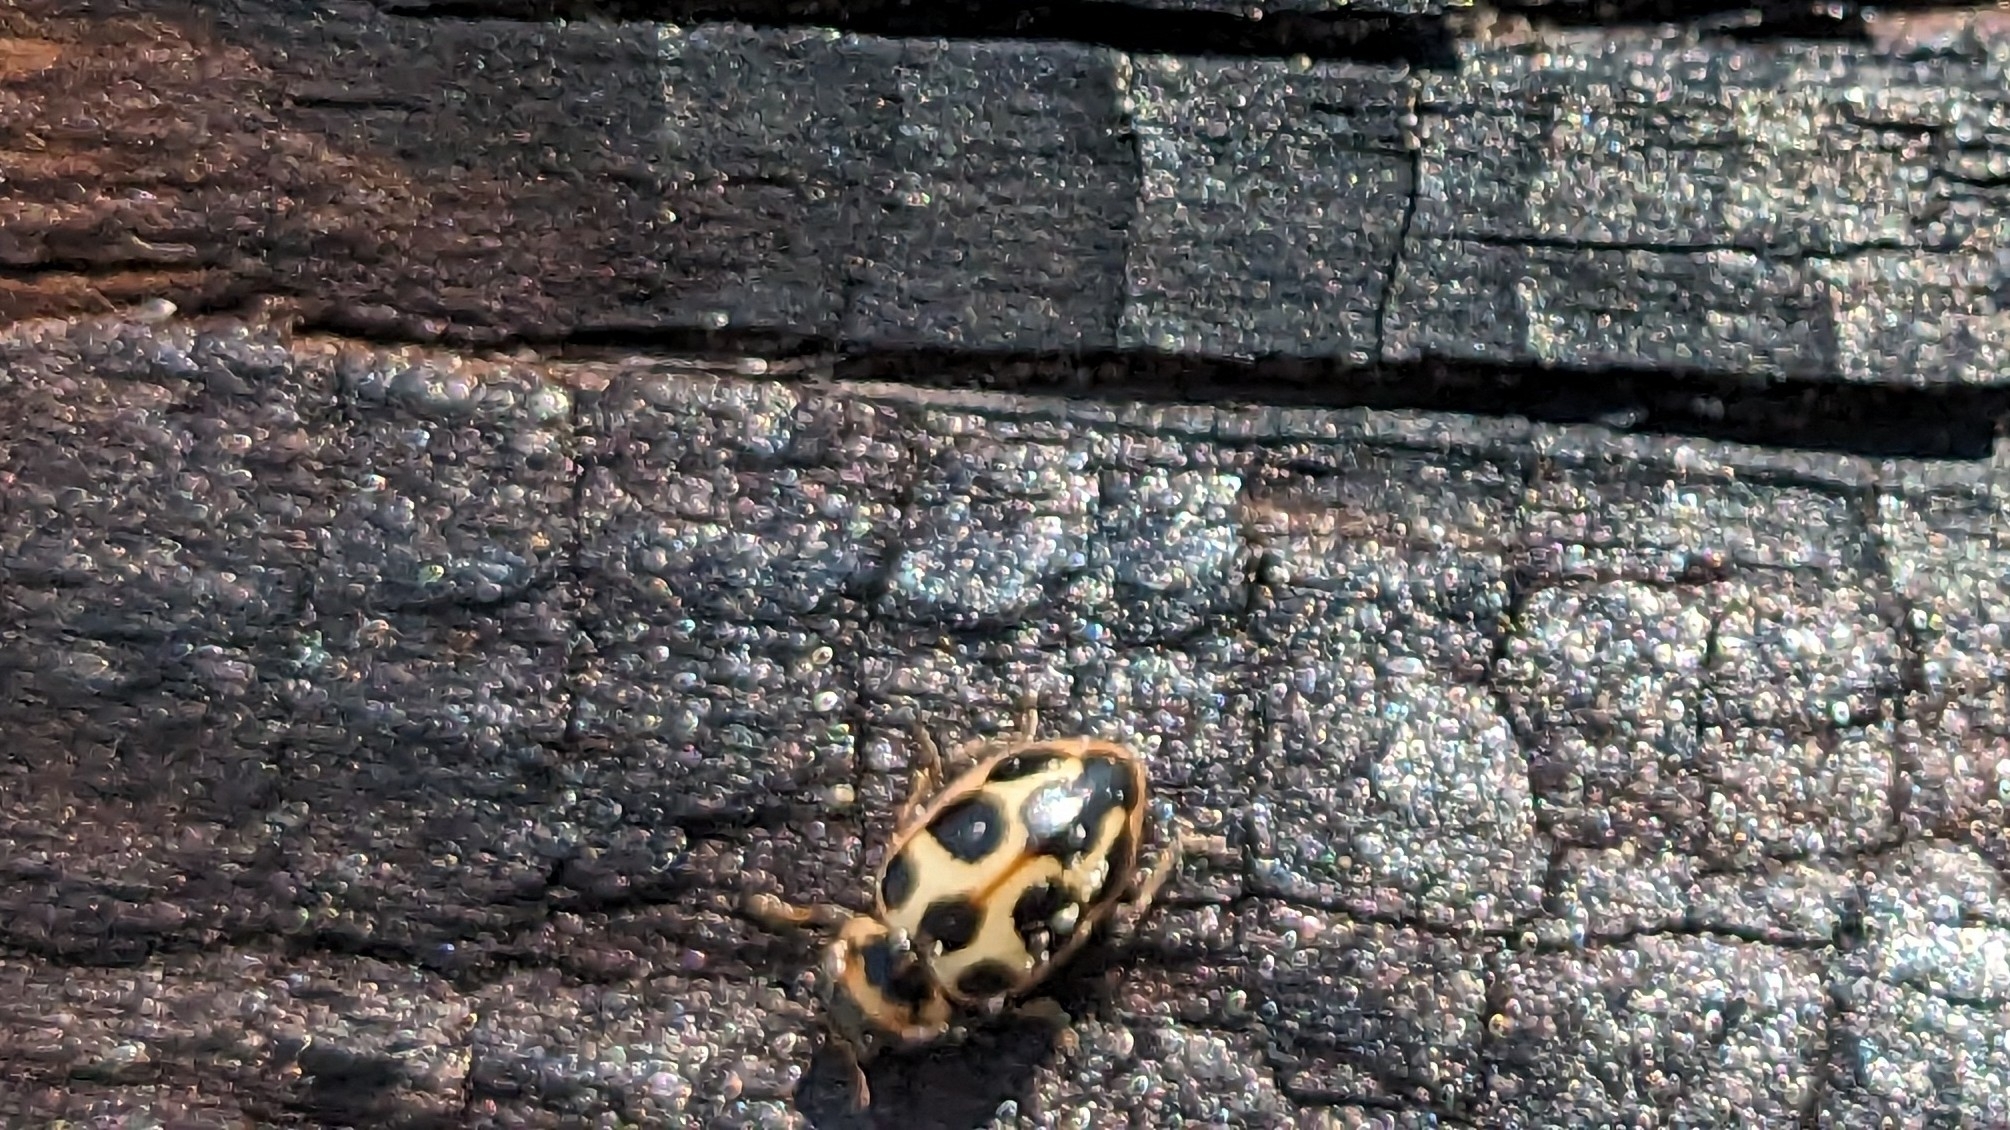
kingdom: Animalia
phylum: Arthropoda
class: Insecta
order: Coleoptera
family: Coccinellidae
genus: Naemia
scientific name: Naemia seriata
